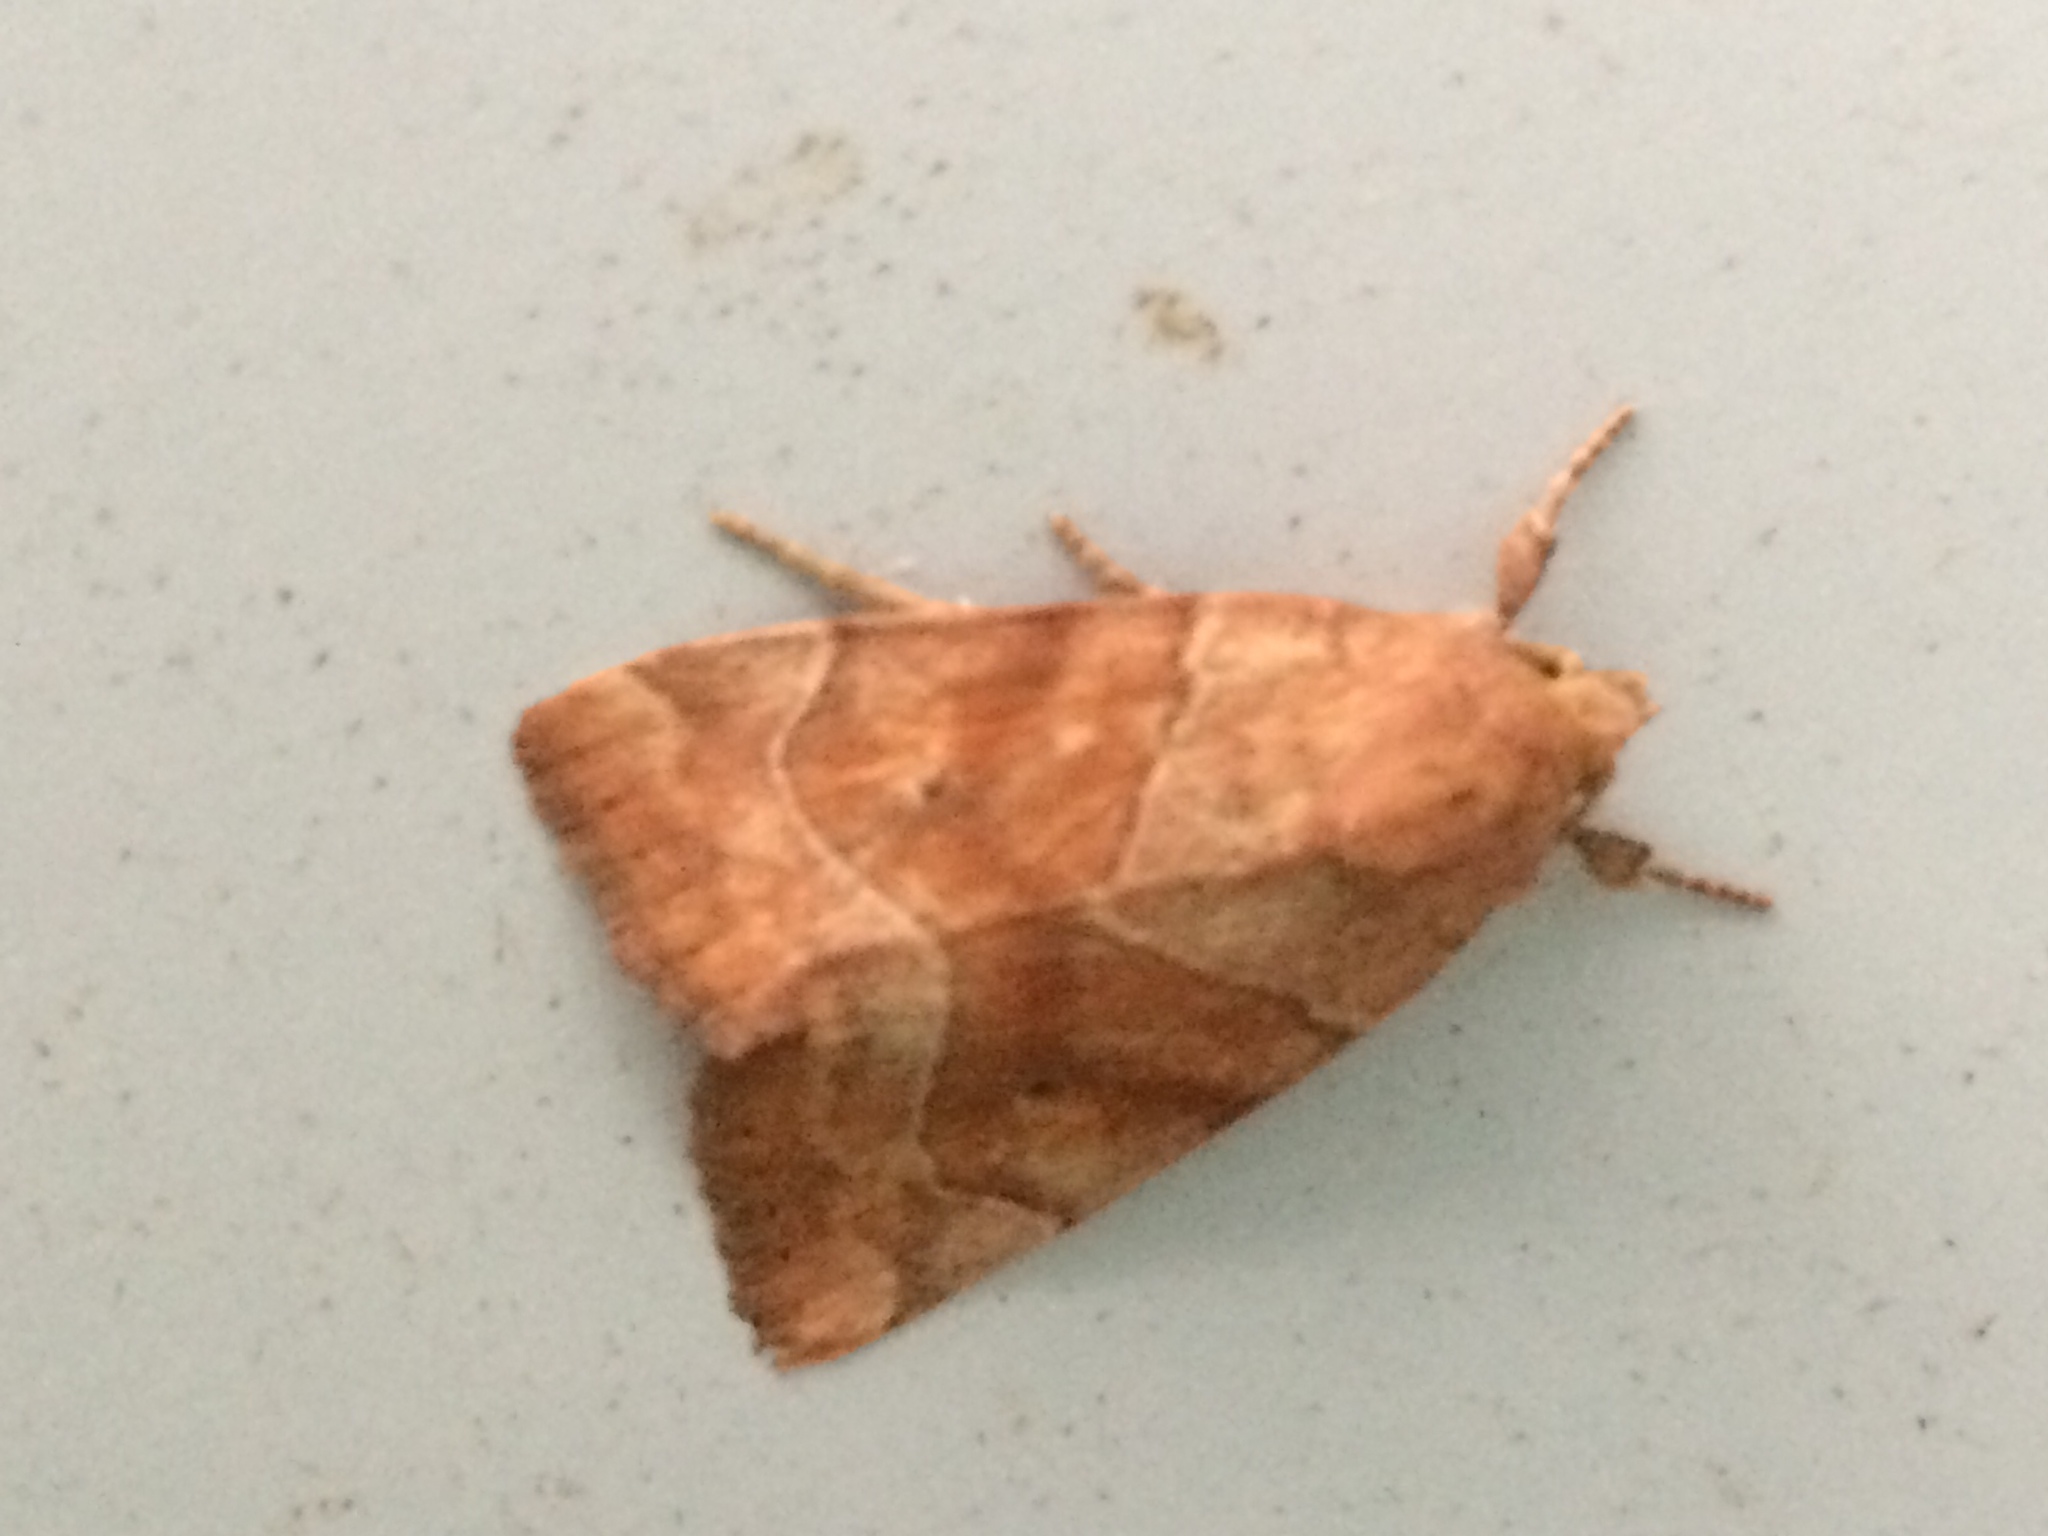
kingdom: Animalia
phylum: Arthropoda
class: Insecta
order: Lepidoptera
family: Noctuidae
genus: Cosmia
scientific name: Cosmia trapezina
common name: Dun-bar
